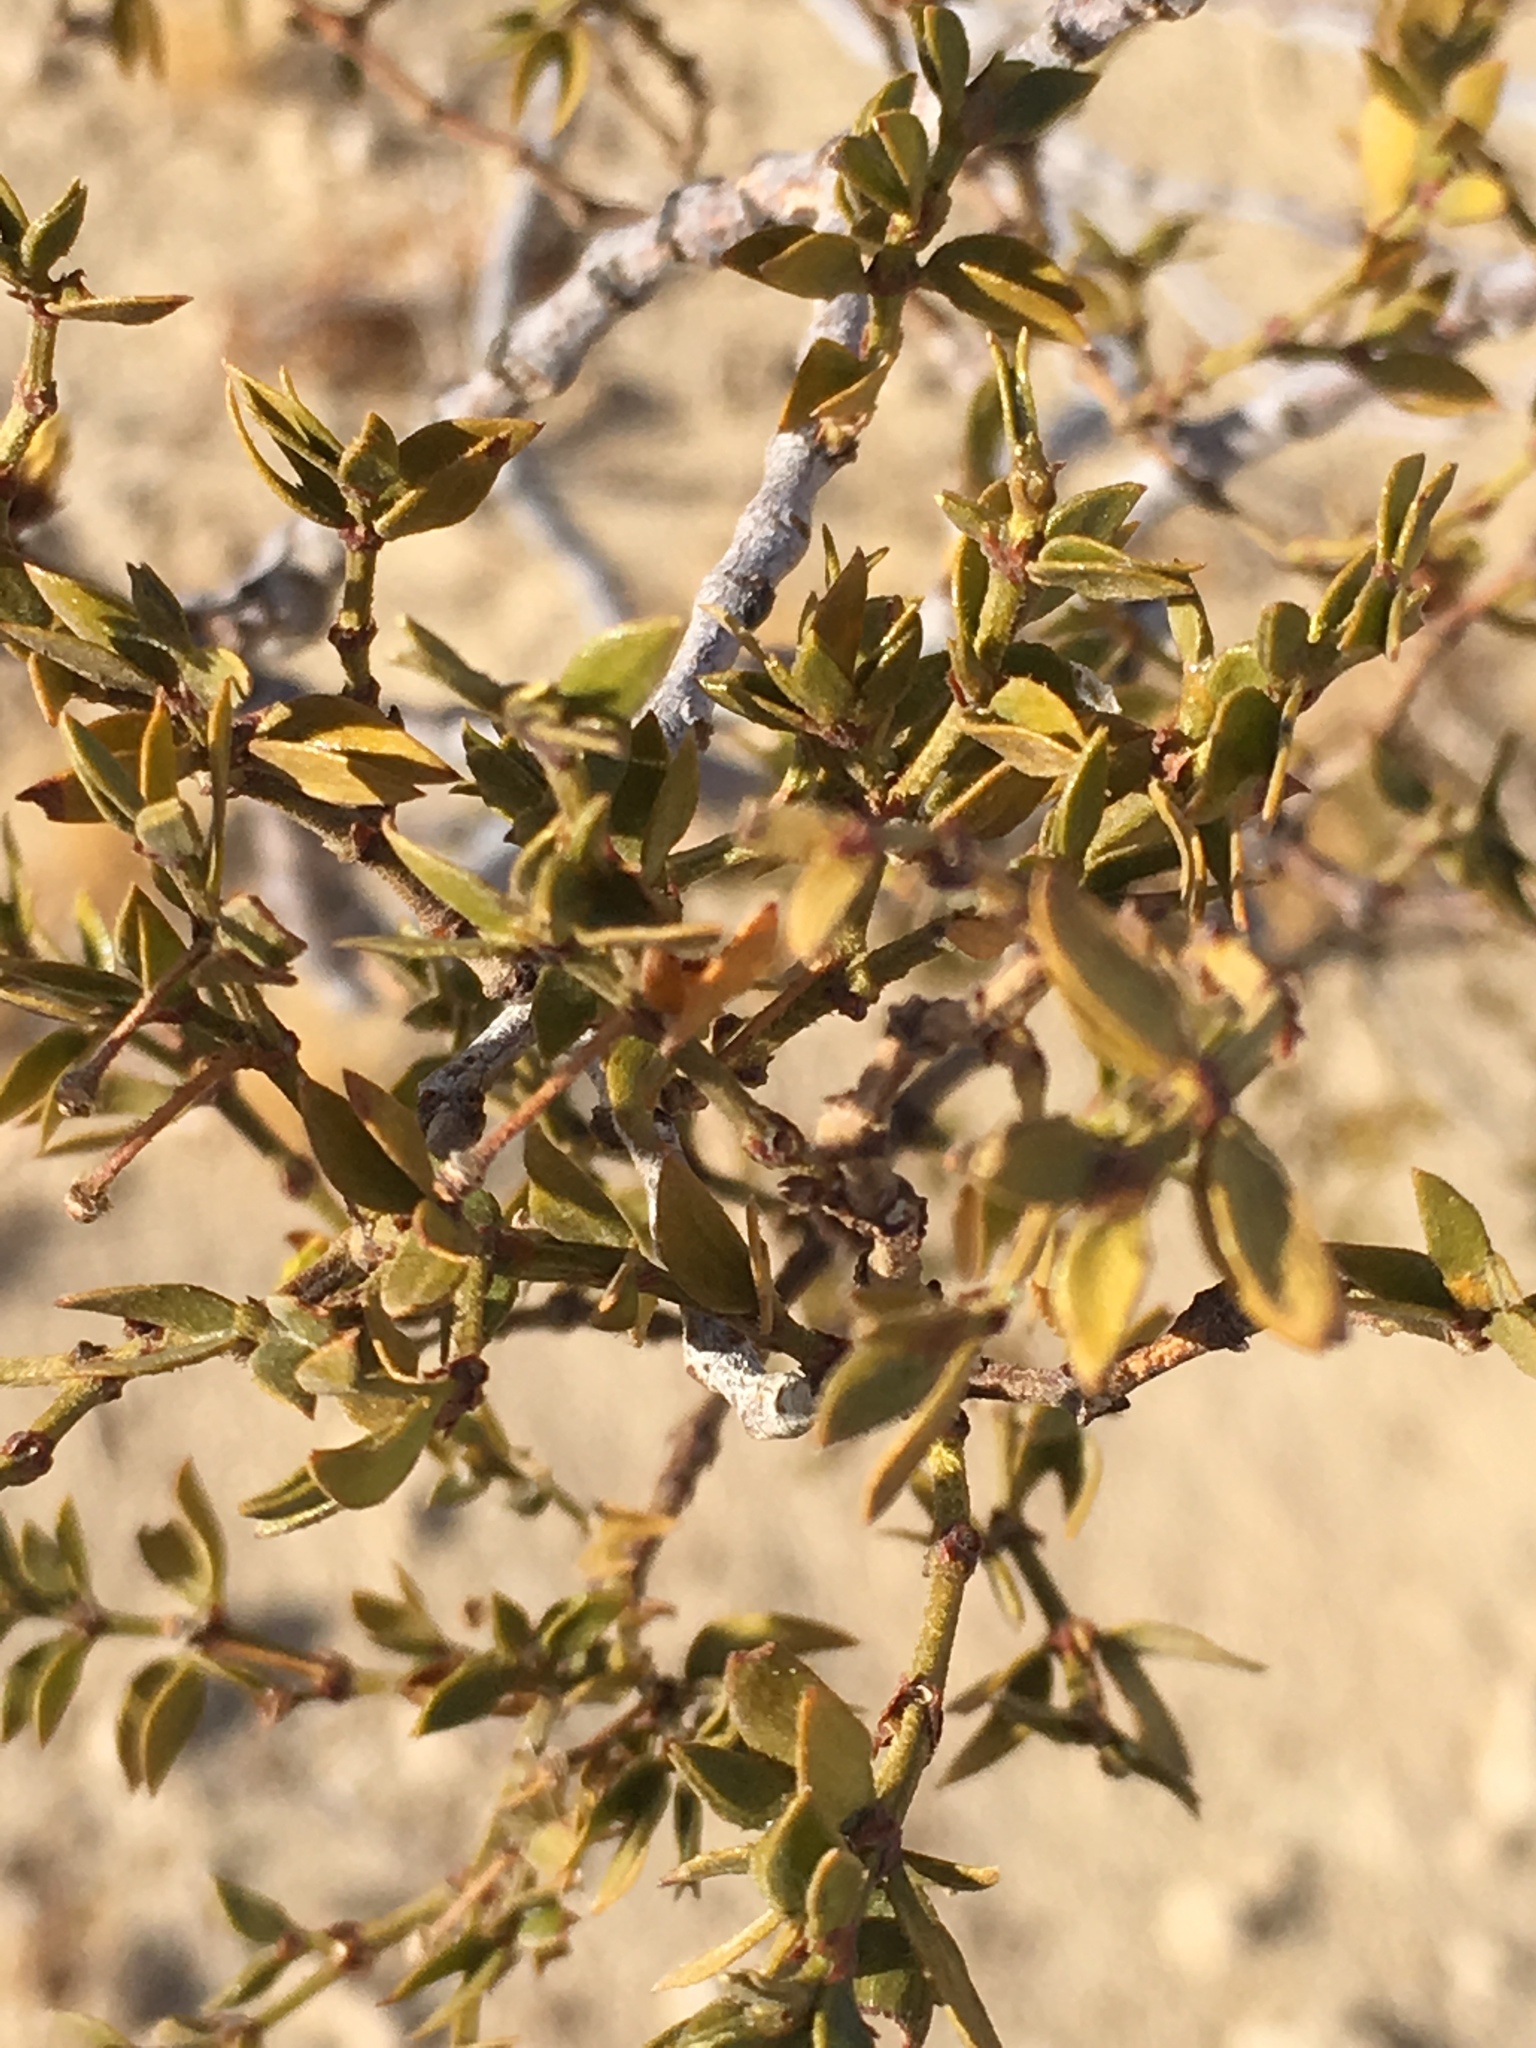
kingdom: Plantae
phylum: Tracheophyta
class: Magnoliopsida
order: Zygophyllales
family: Zygophyllaceae
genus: Larrea
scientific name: Larrea tridentata
